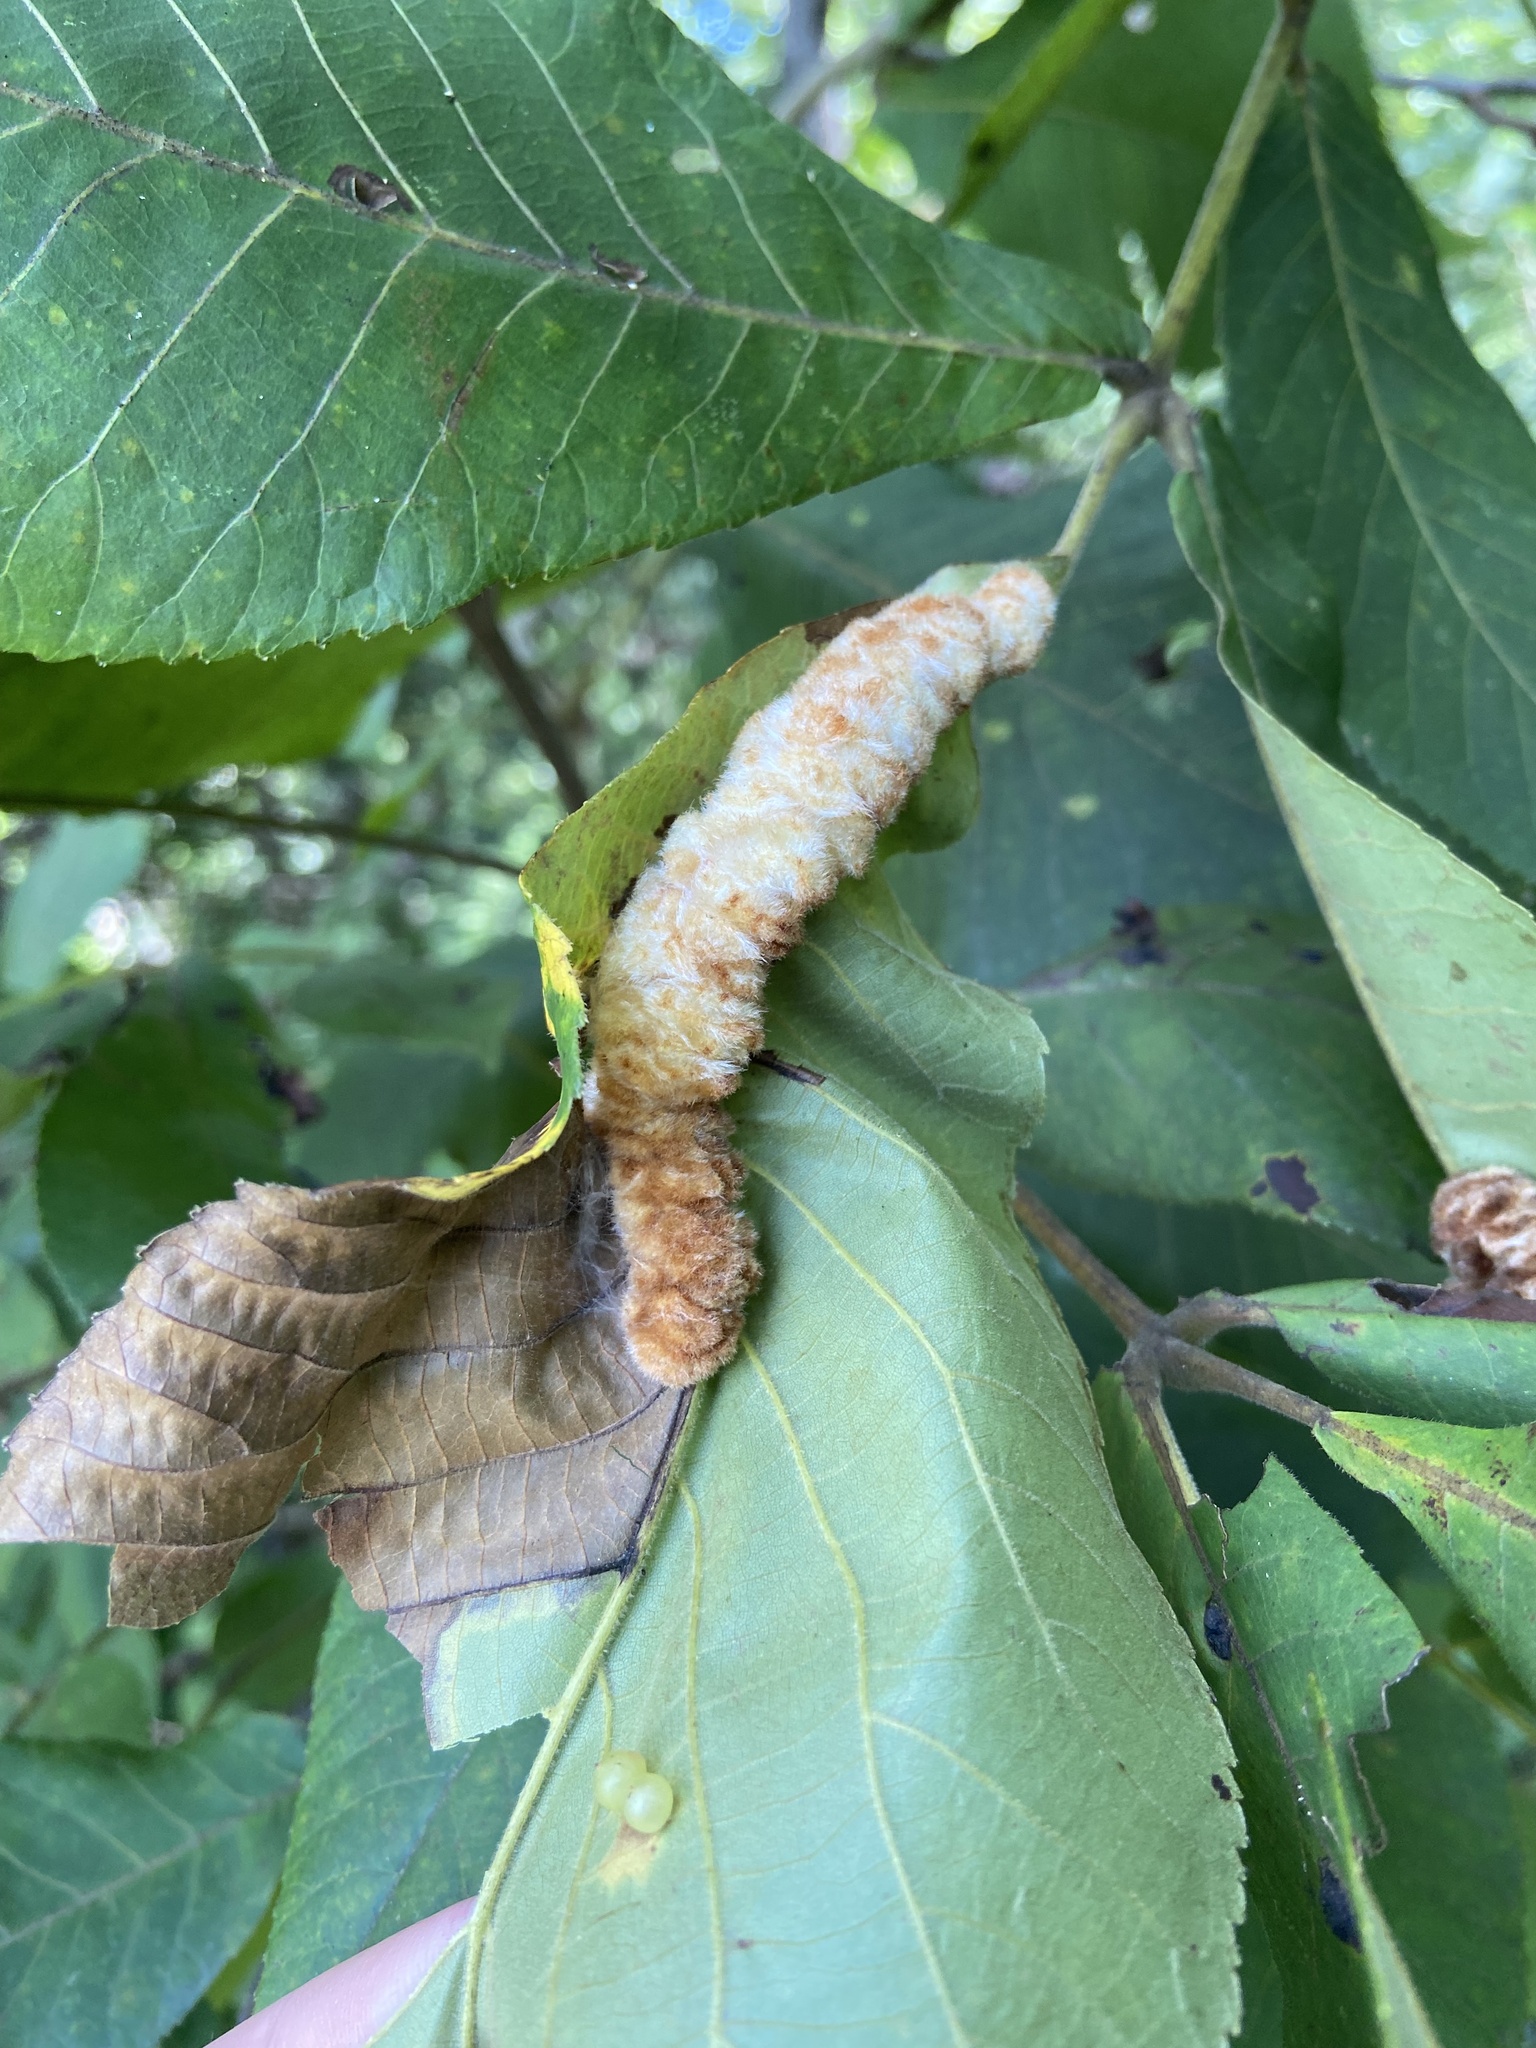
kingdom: Animalia
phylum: Arthropoda
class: Insecta
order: Diptera
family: Cecidomyiidae
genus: Caryomyia
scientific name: Caryomyia aggregata
